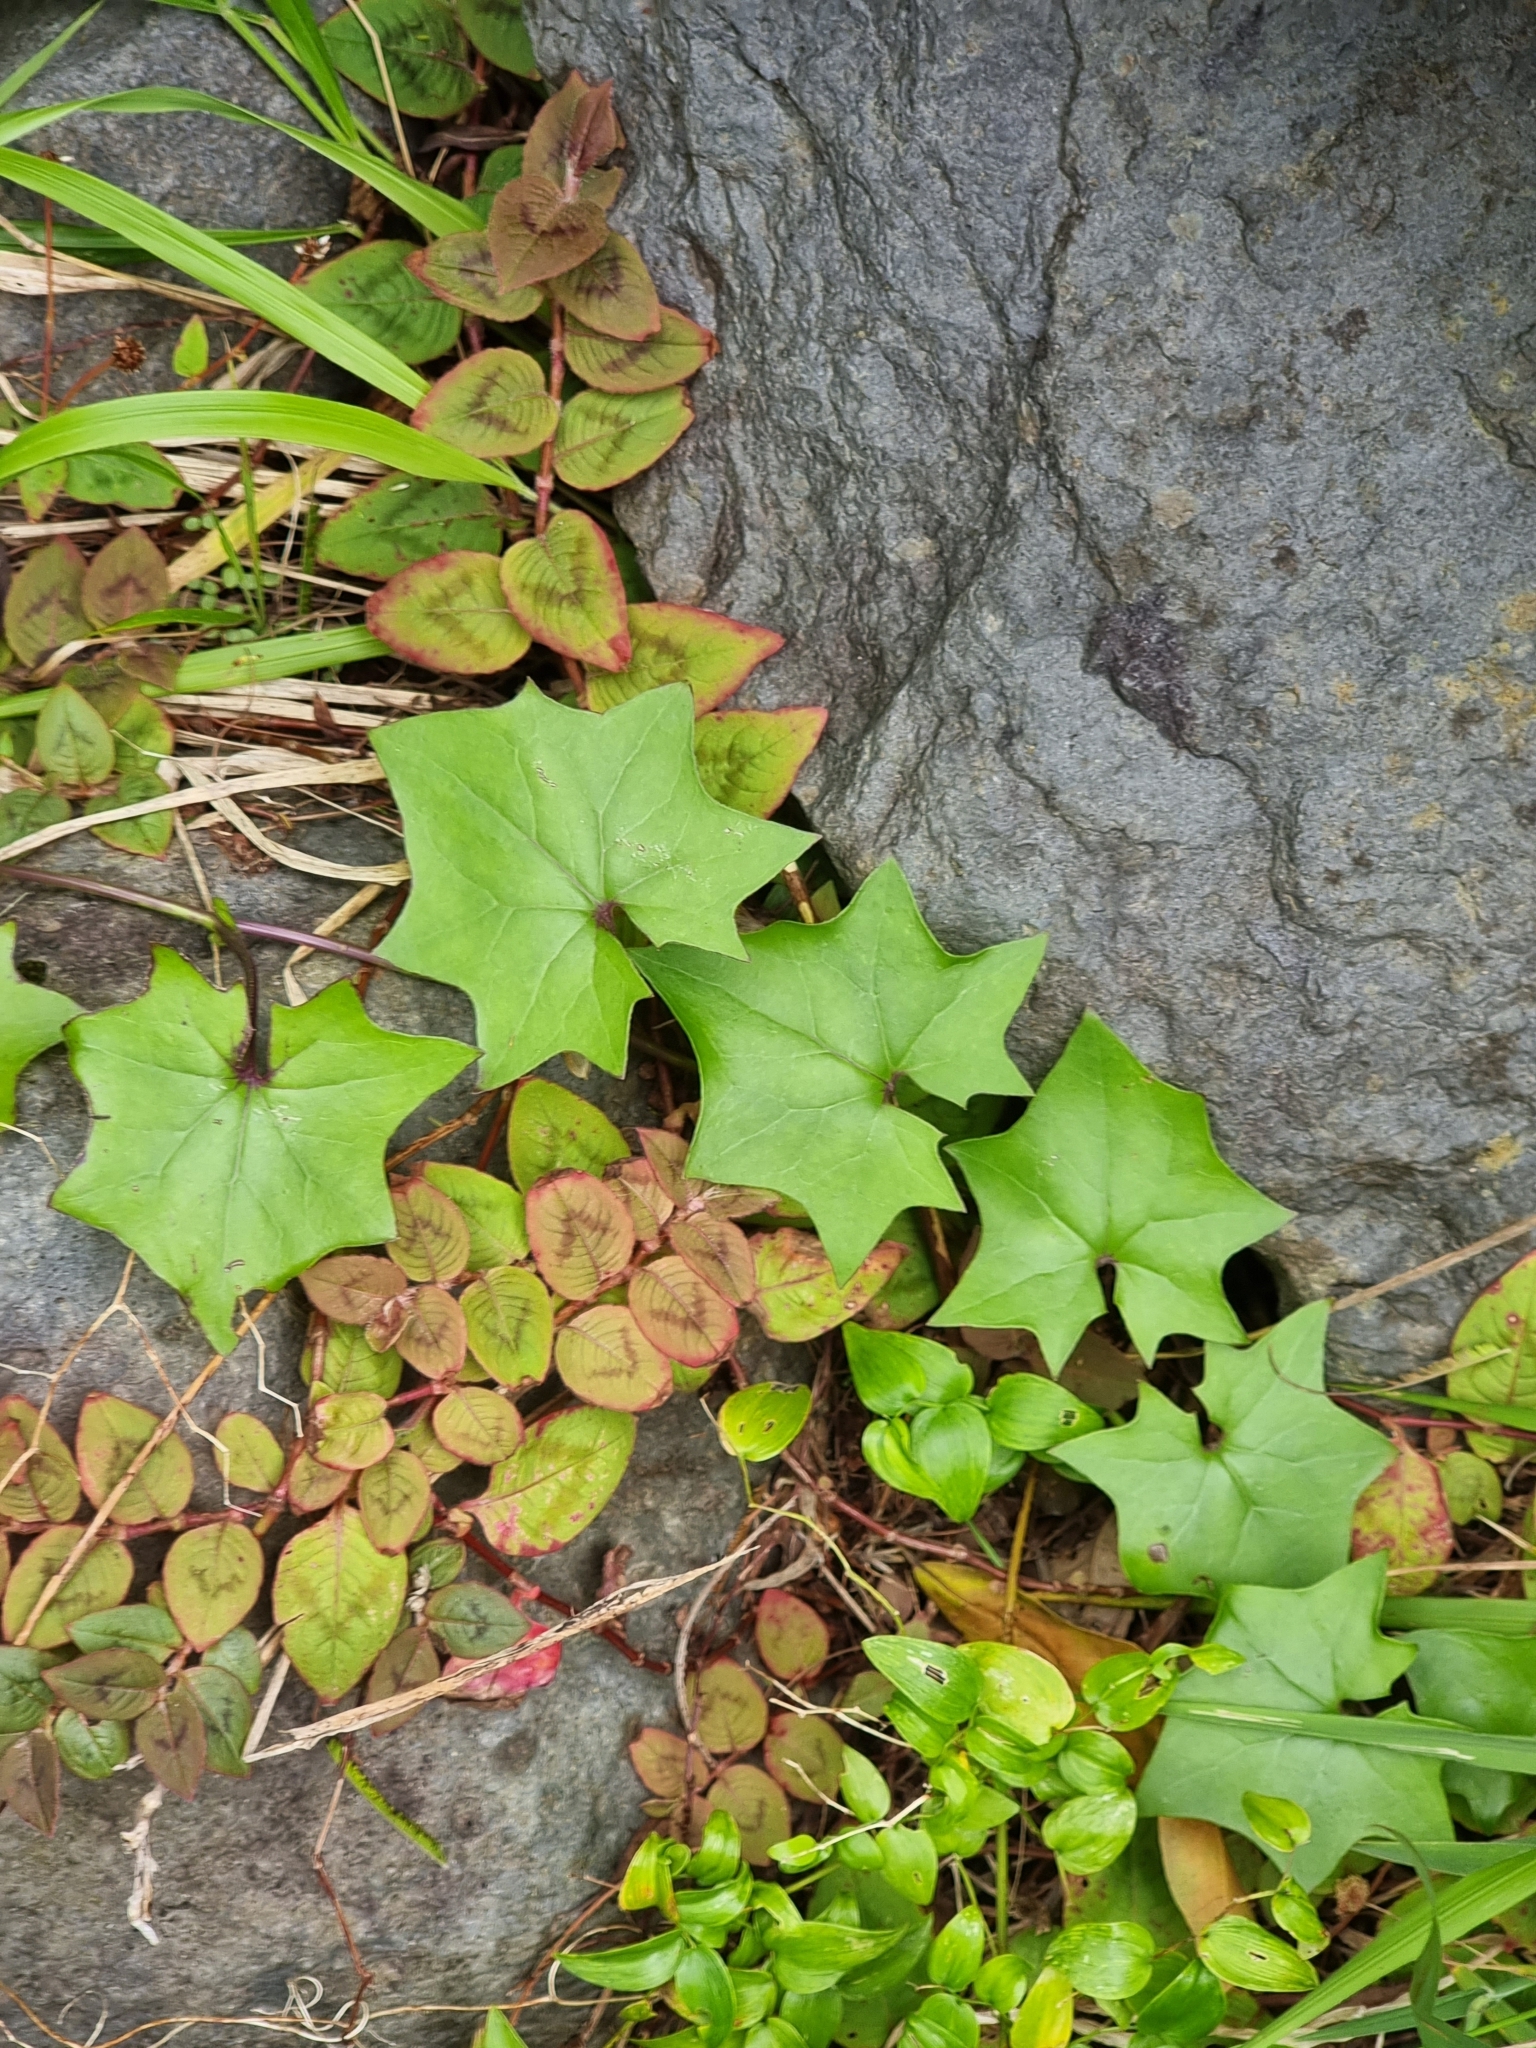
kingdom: Plantae
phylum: Tracheophyta
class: Magnoliopsida
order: Asterales
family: Asteraceae
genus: Delairea
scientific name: Delairea odorata
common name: Cape-ivy
